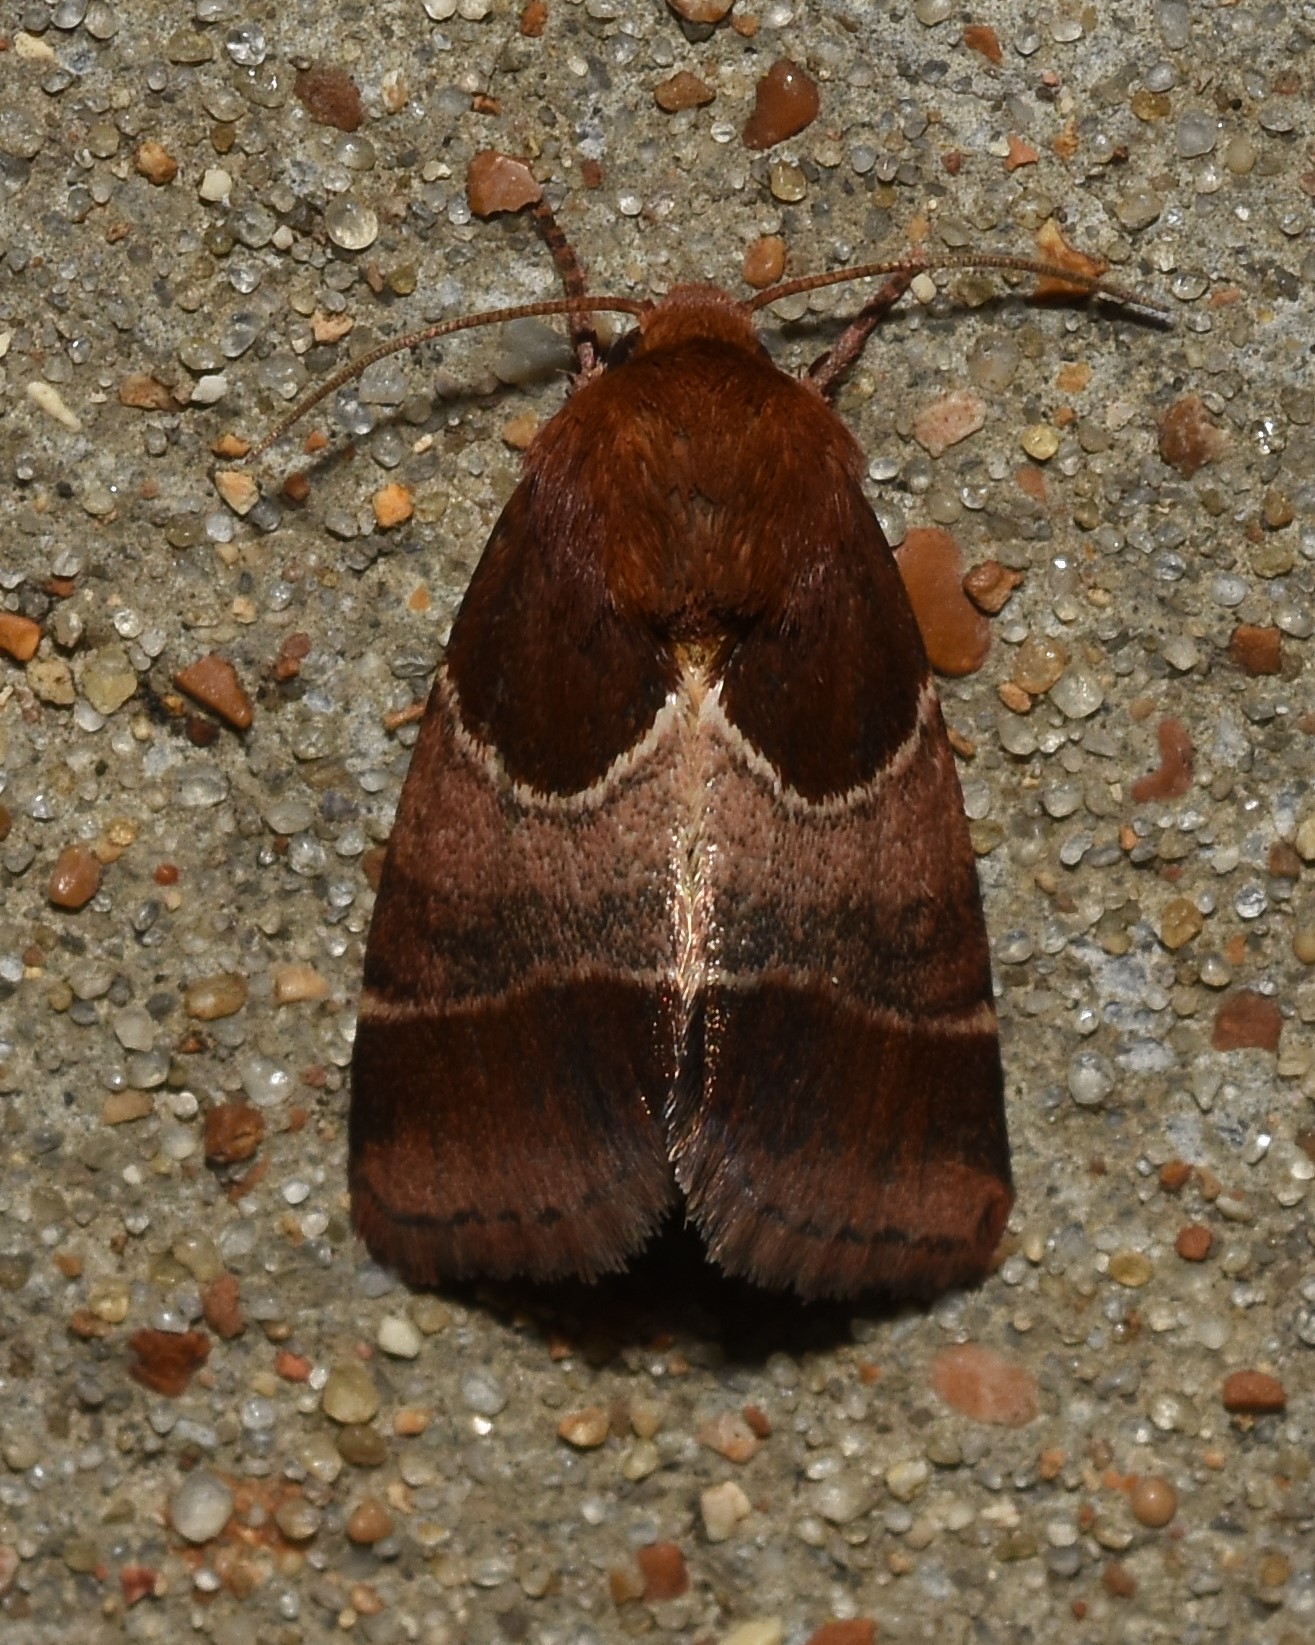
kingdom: Animalia
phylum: Arthropoda
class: Insecta
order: Lepidoptera
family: Noctuidae
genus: Schinia
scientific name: Schinia arcigera
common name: Arcigera flower moth
